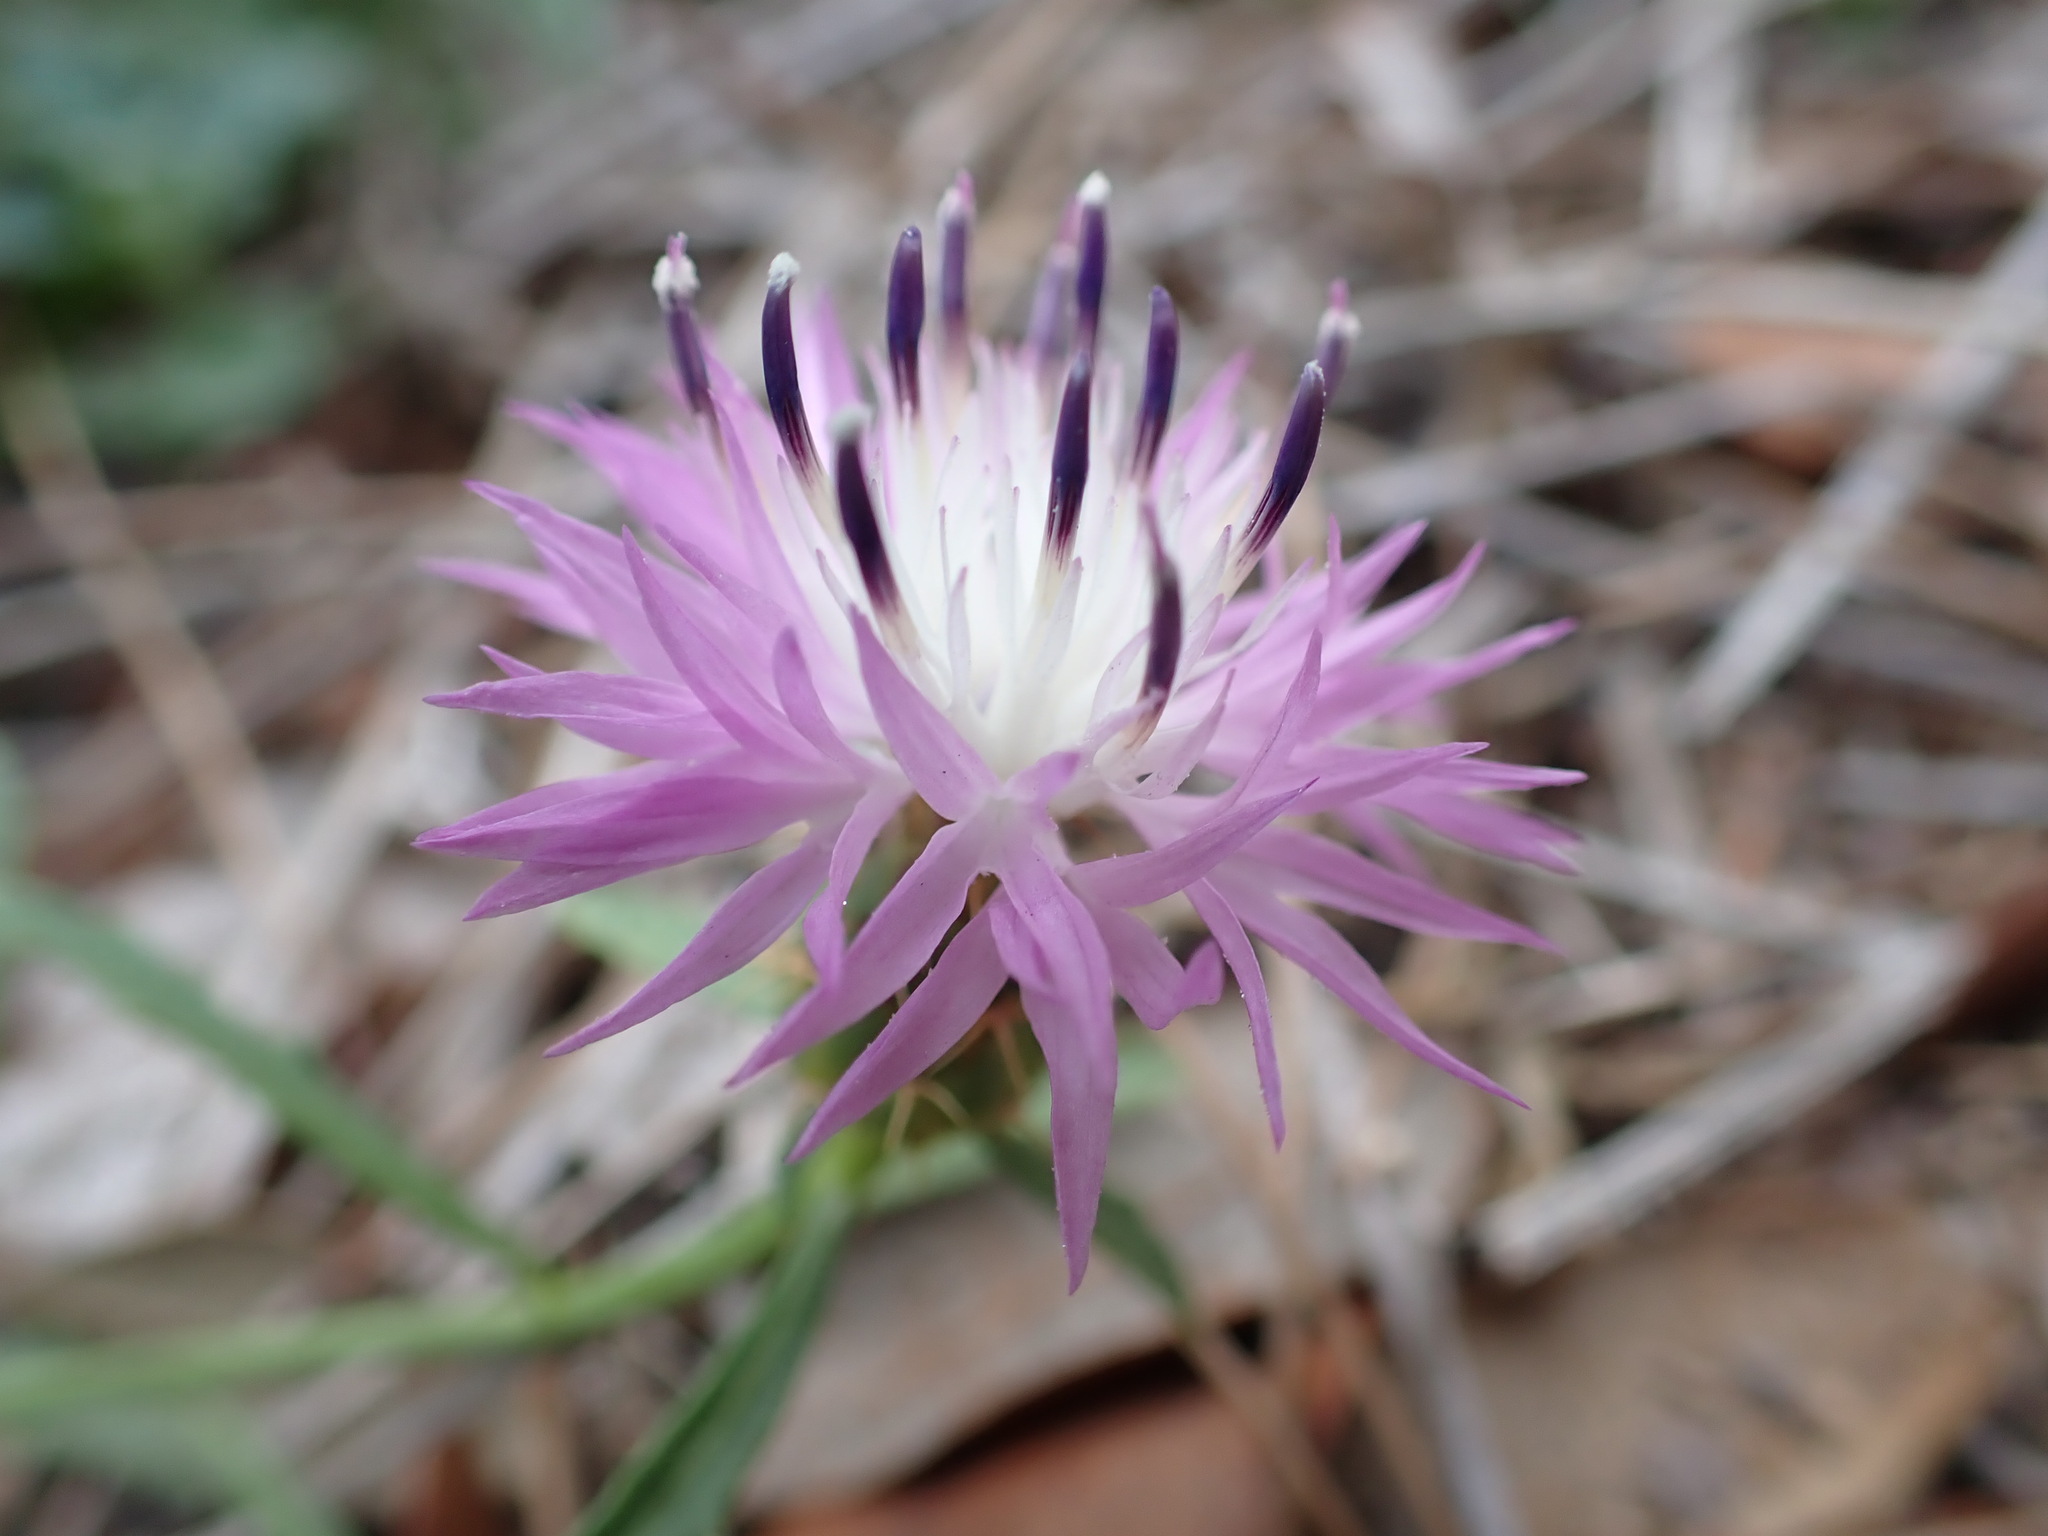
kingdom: Plantae
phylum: Tracheophyta
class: Magnoliopsida
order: Asterales
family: Asteraceae
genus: Centaurea
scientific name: Centaurea aspera
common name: Rough star-thistle
